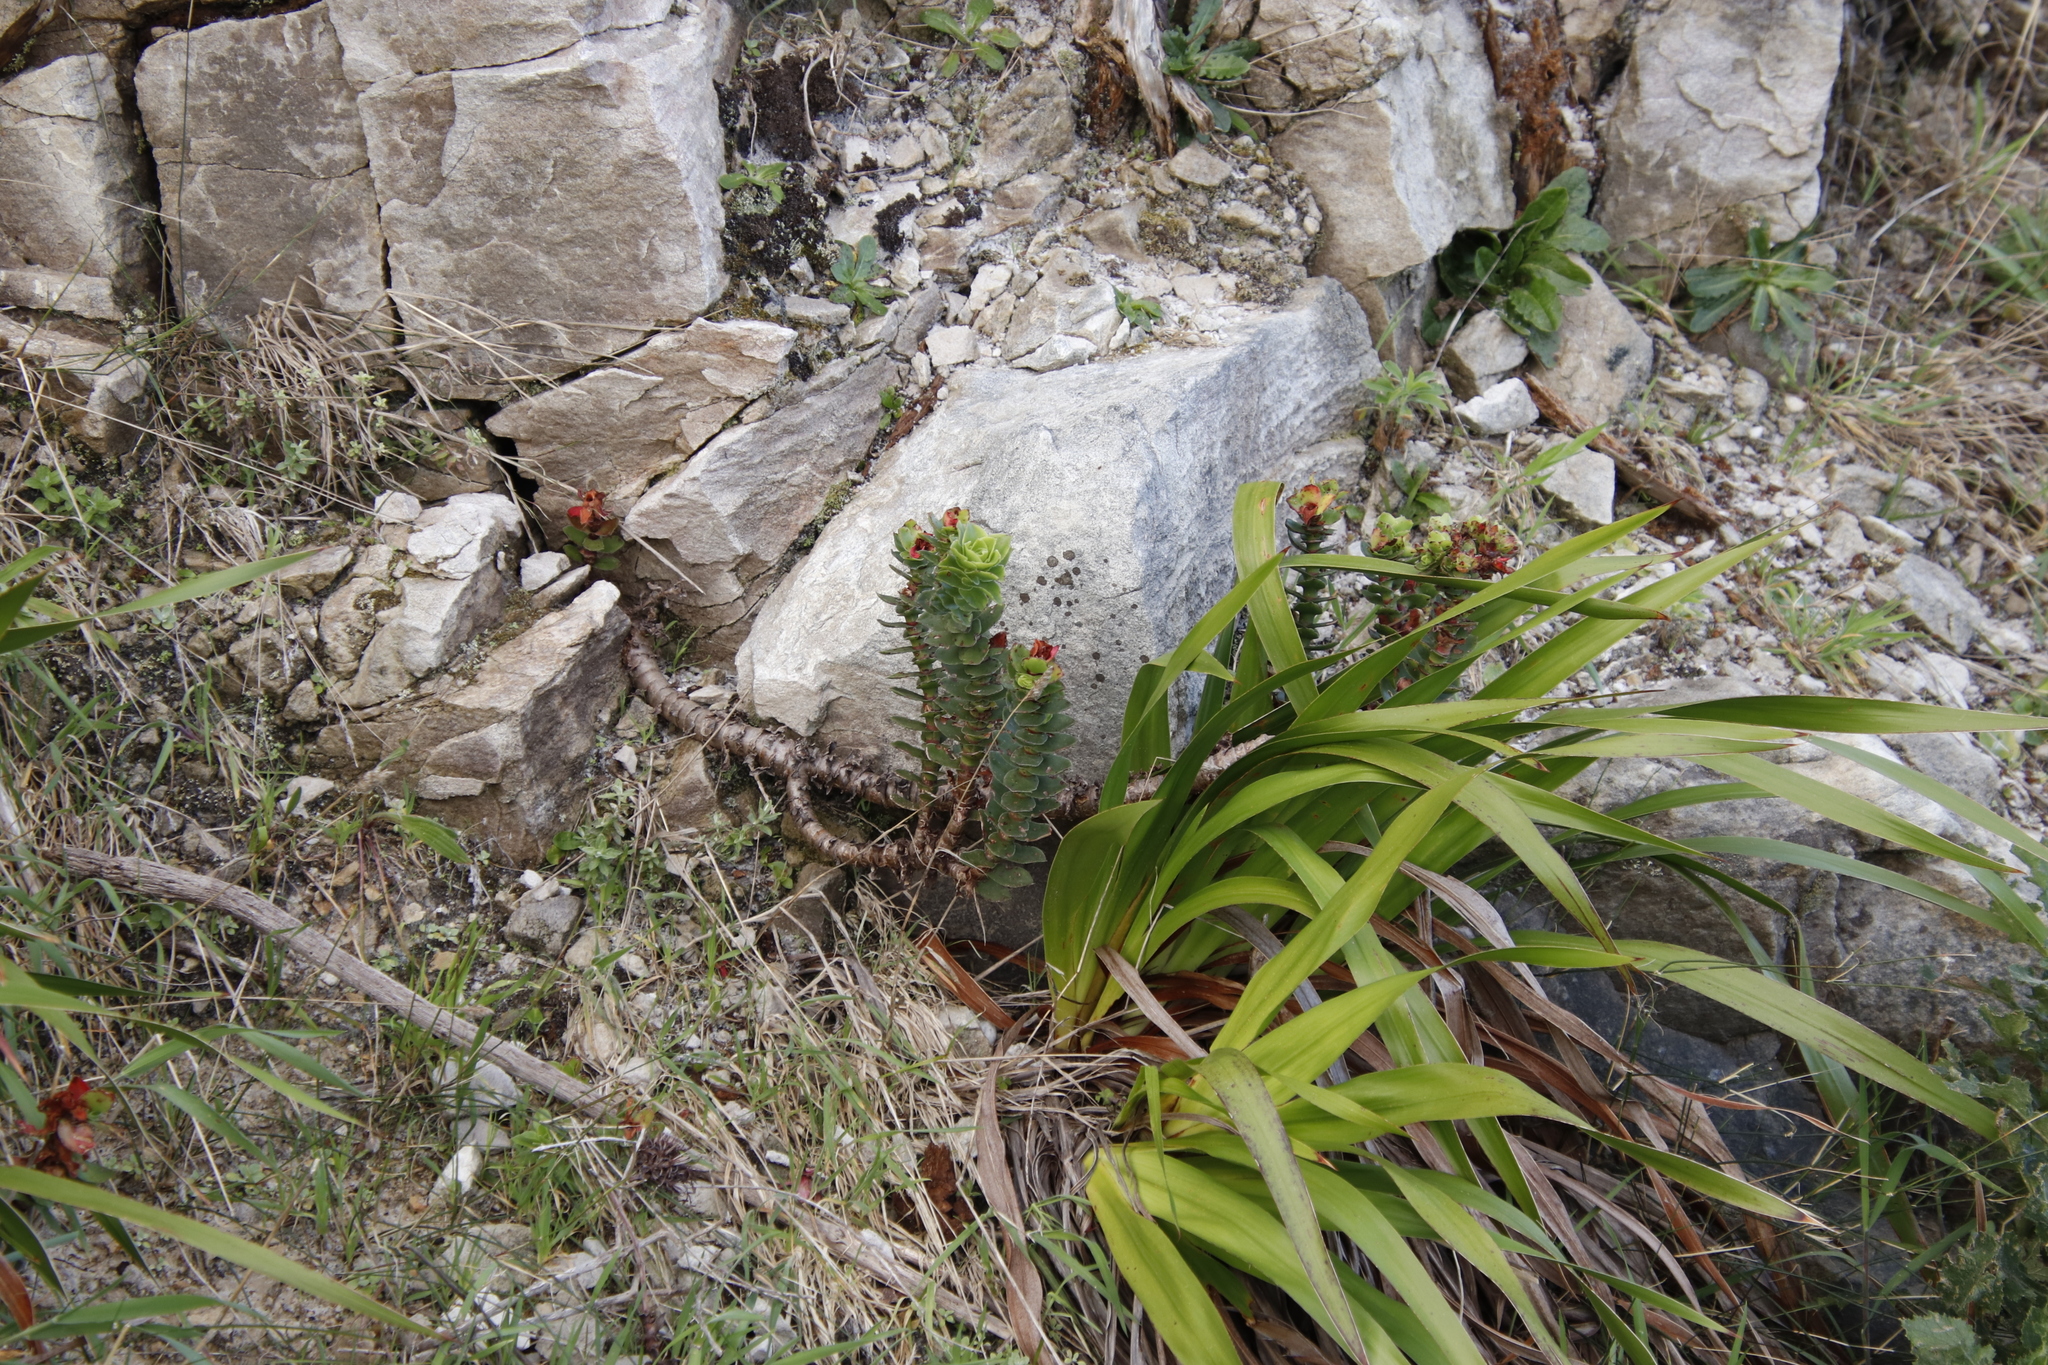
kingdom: Plantae
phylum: Tracheophyta
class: Magnoliopsida
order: Saxifragales
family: Crassulaceae
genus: Crassula
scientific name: Crassula coccinea
